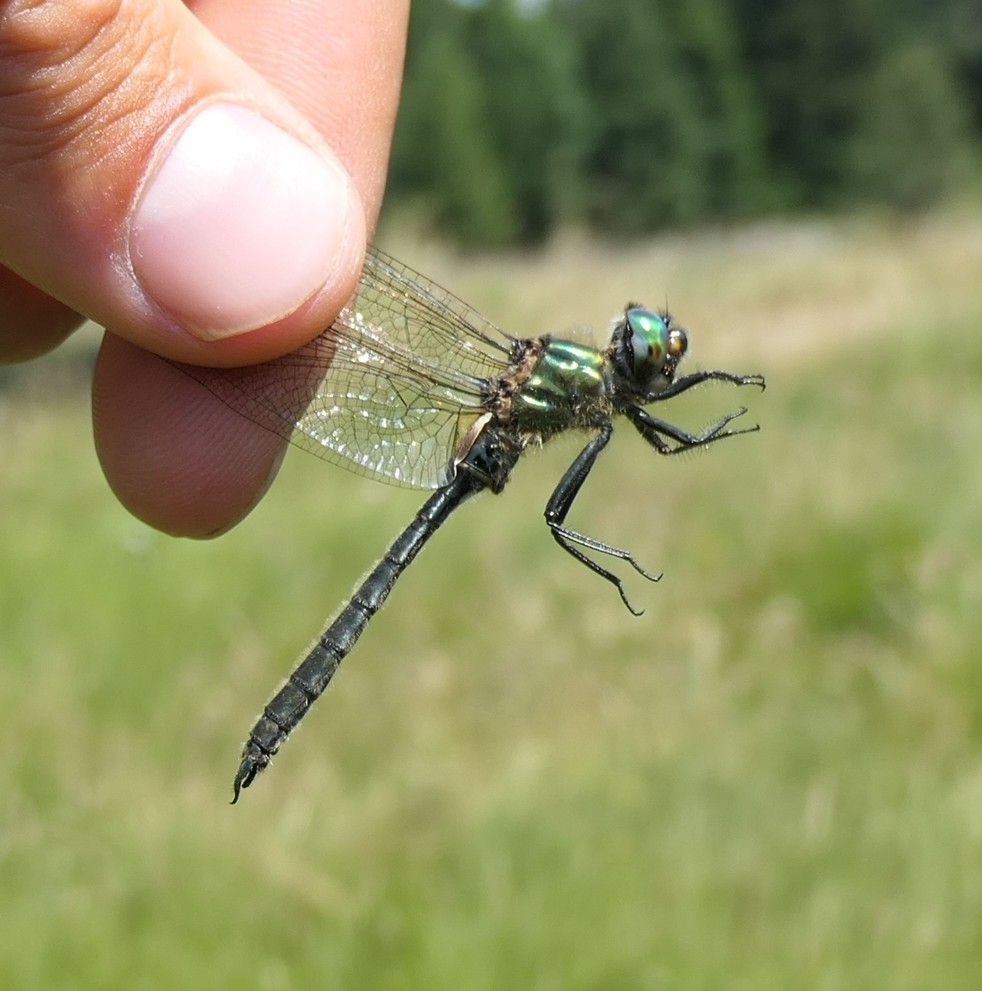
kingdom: Animalia
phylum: Arthropoda
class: Insecta
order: Odonata
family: Corduliidae
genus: Somatochlora
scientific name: Somatochlora alpestris
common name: Alpine emerald
